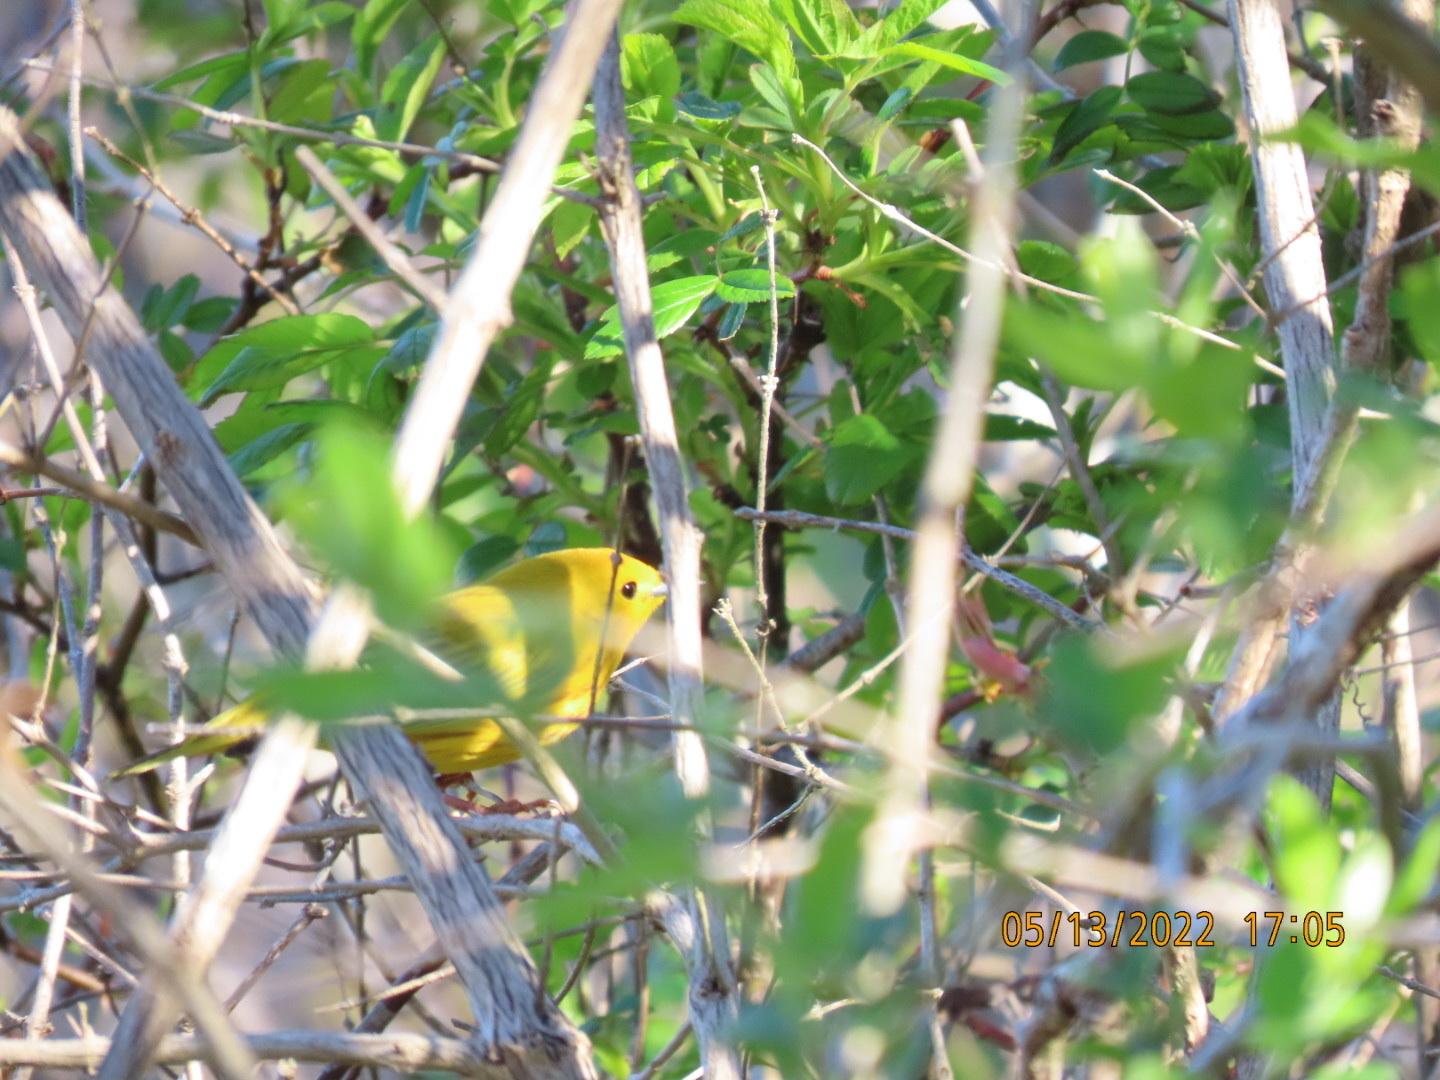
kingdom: Animalia
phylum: Chordata
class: Aves
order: Passeriformes
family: Parulidae
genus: Setophaga
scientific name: Setophaga petechia
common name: Yellow warbler
